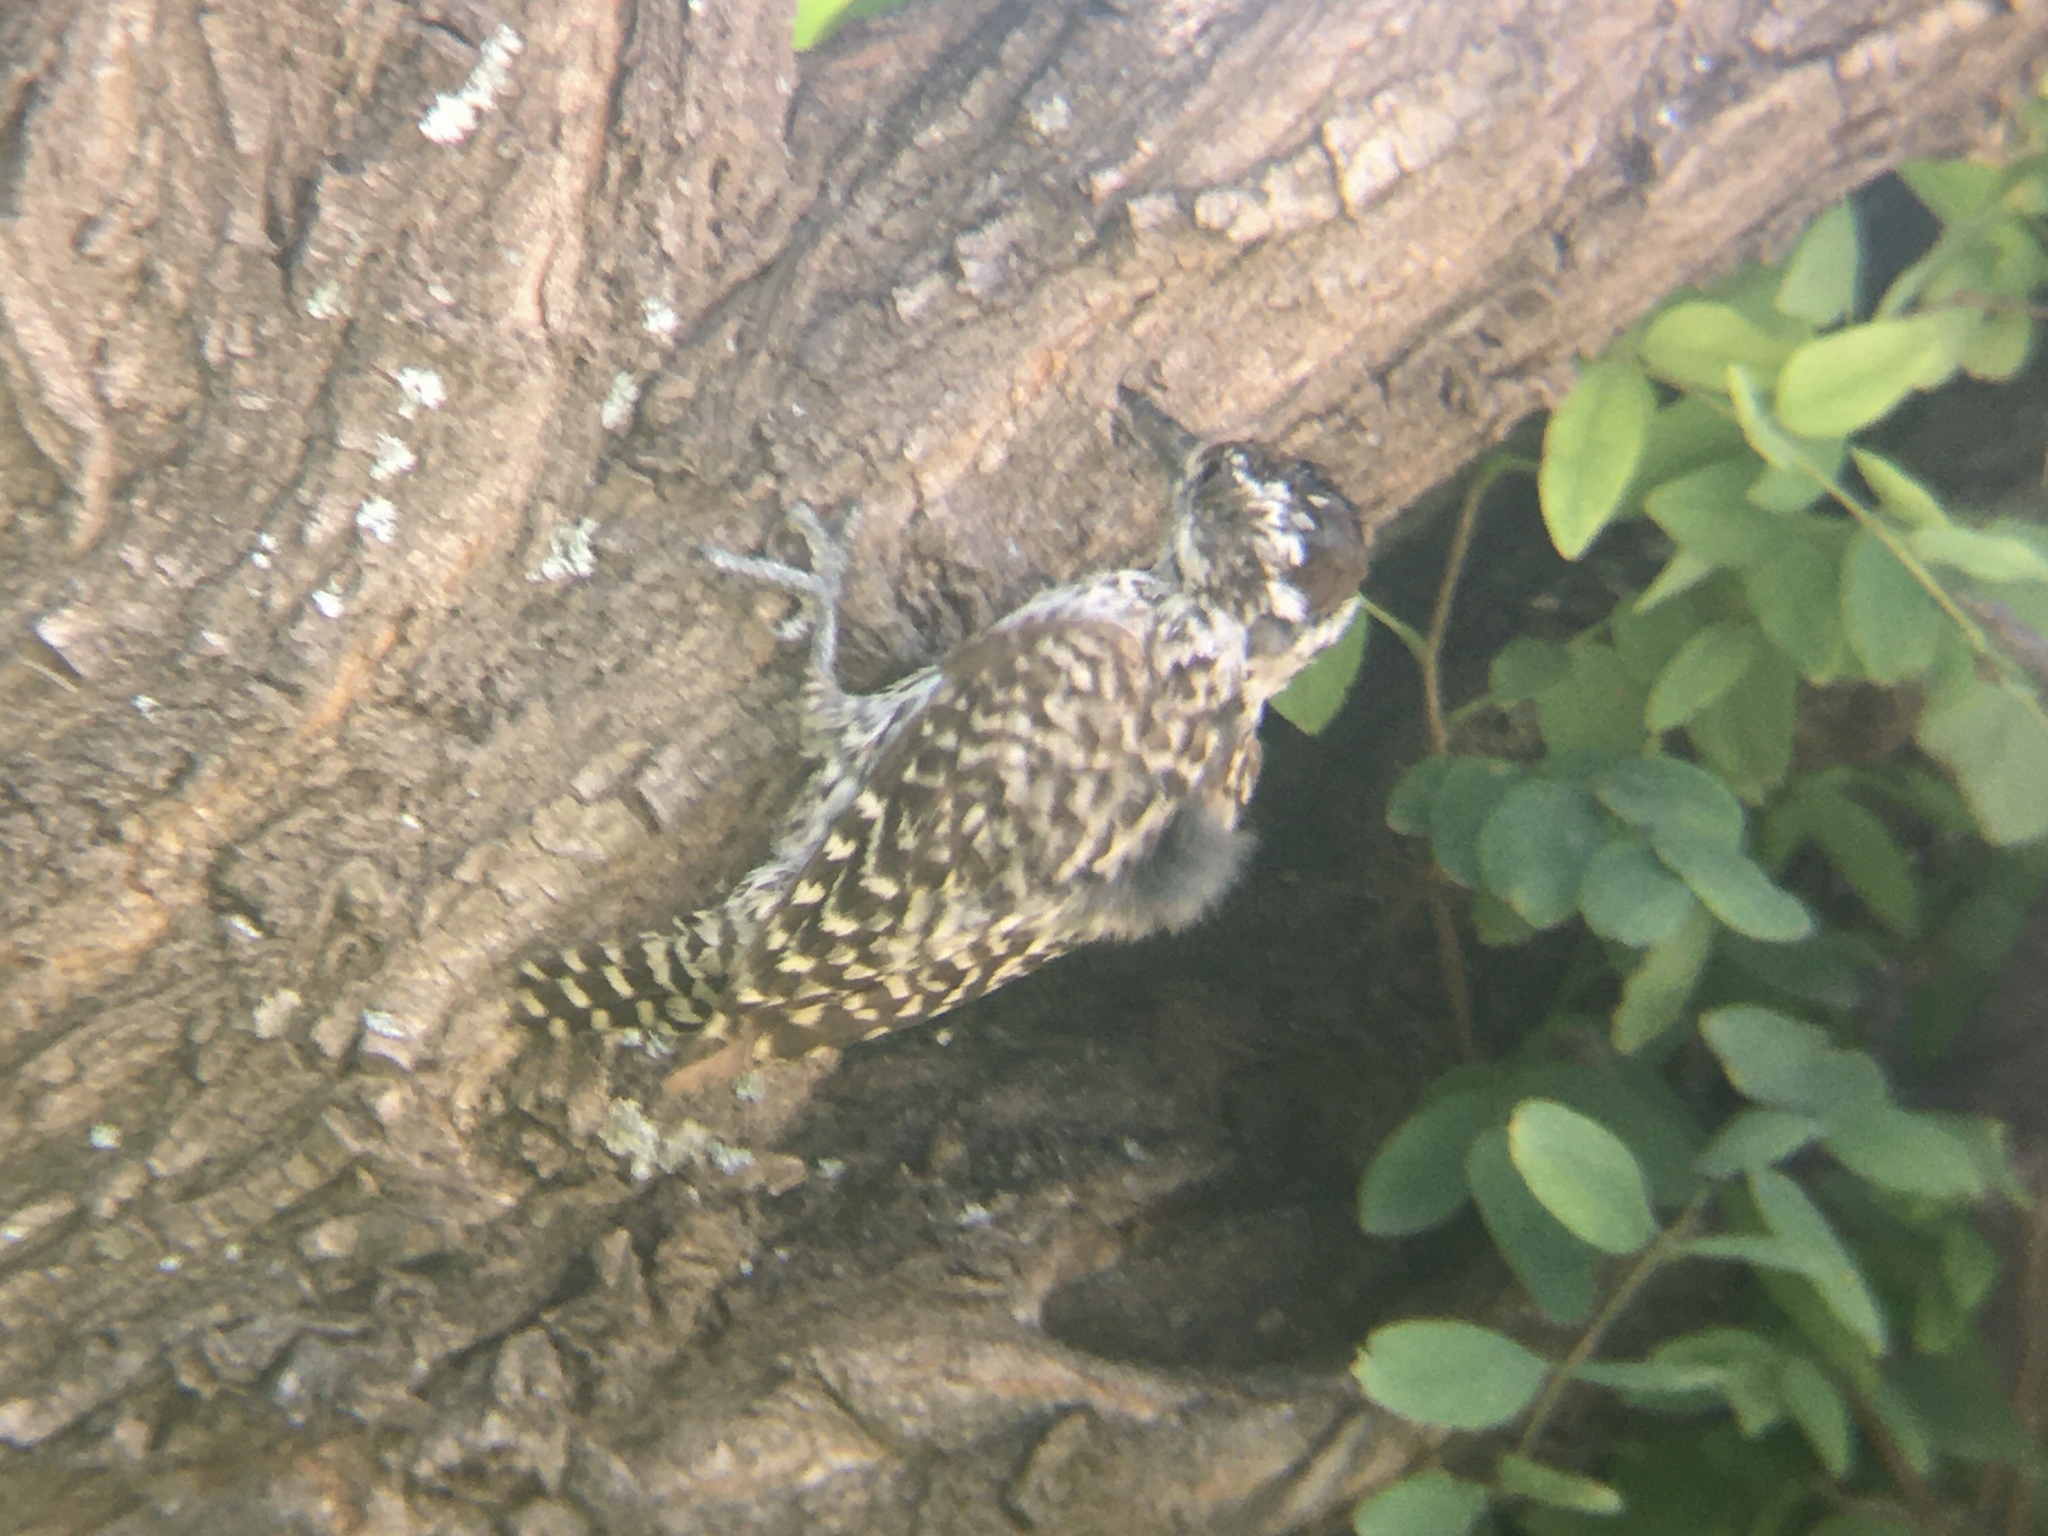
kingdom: Animalia
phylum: Chordata
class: Aves
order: Piciformes
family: Picidae
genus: Veniliornis
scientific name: Veniliornis mixtus
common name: Checkered woodpecker
